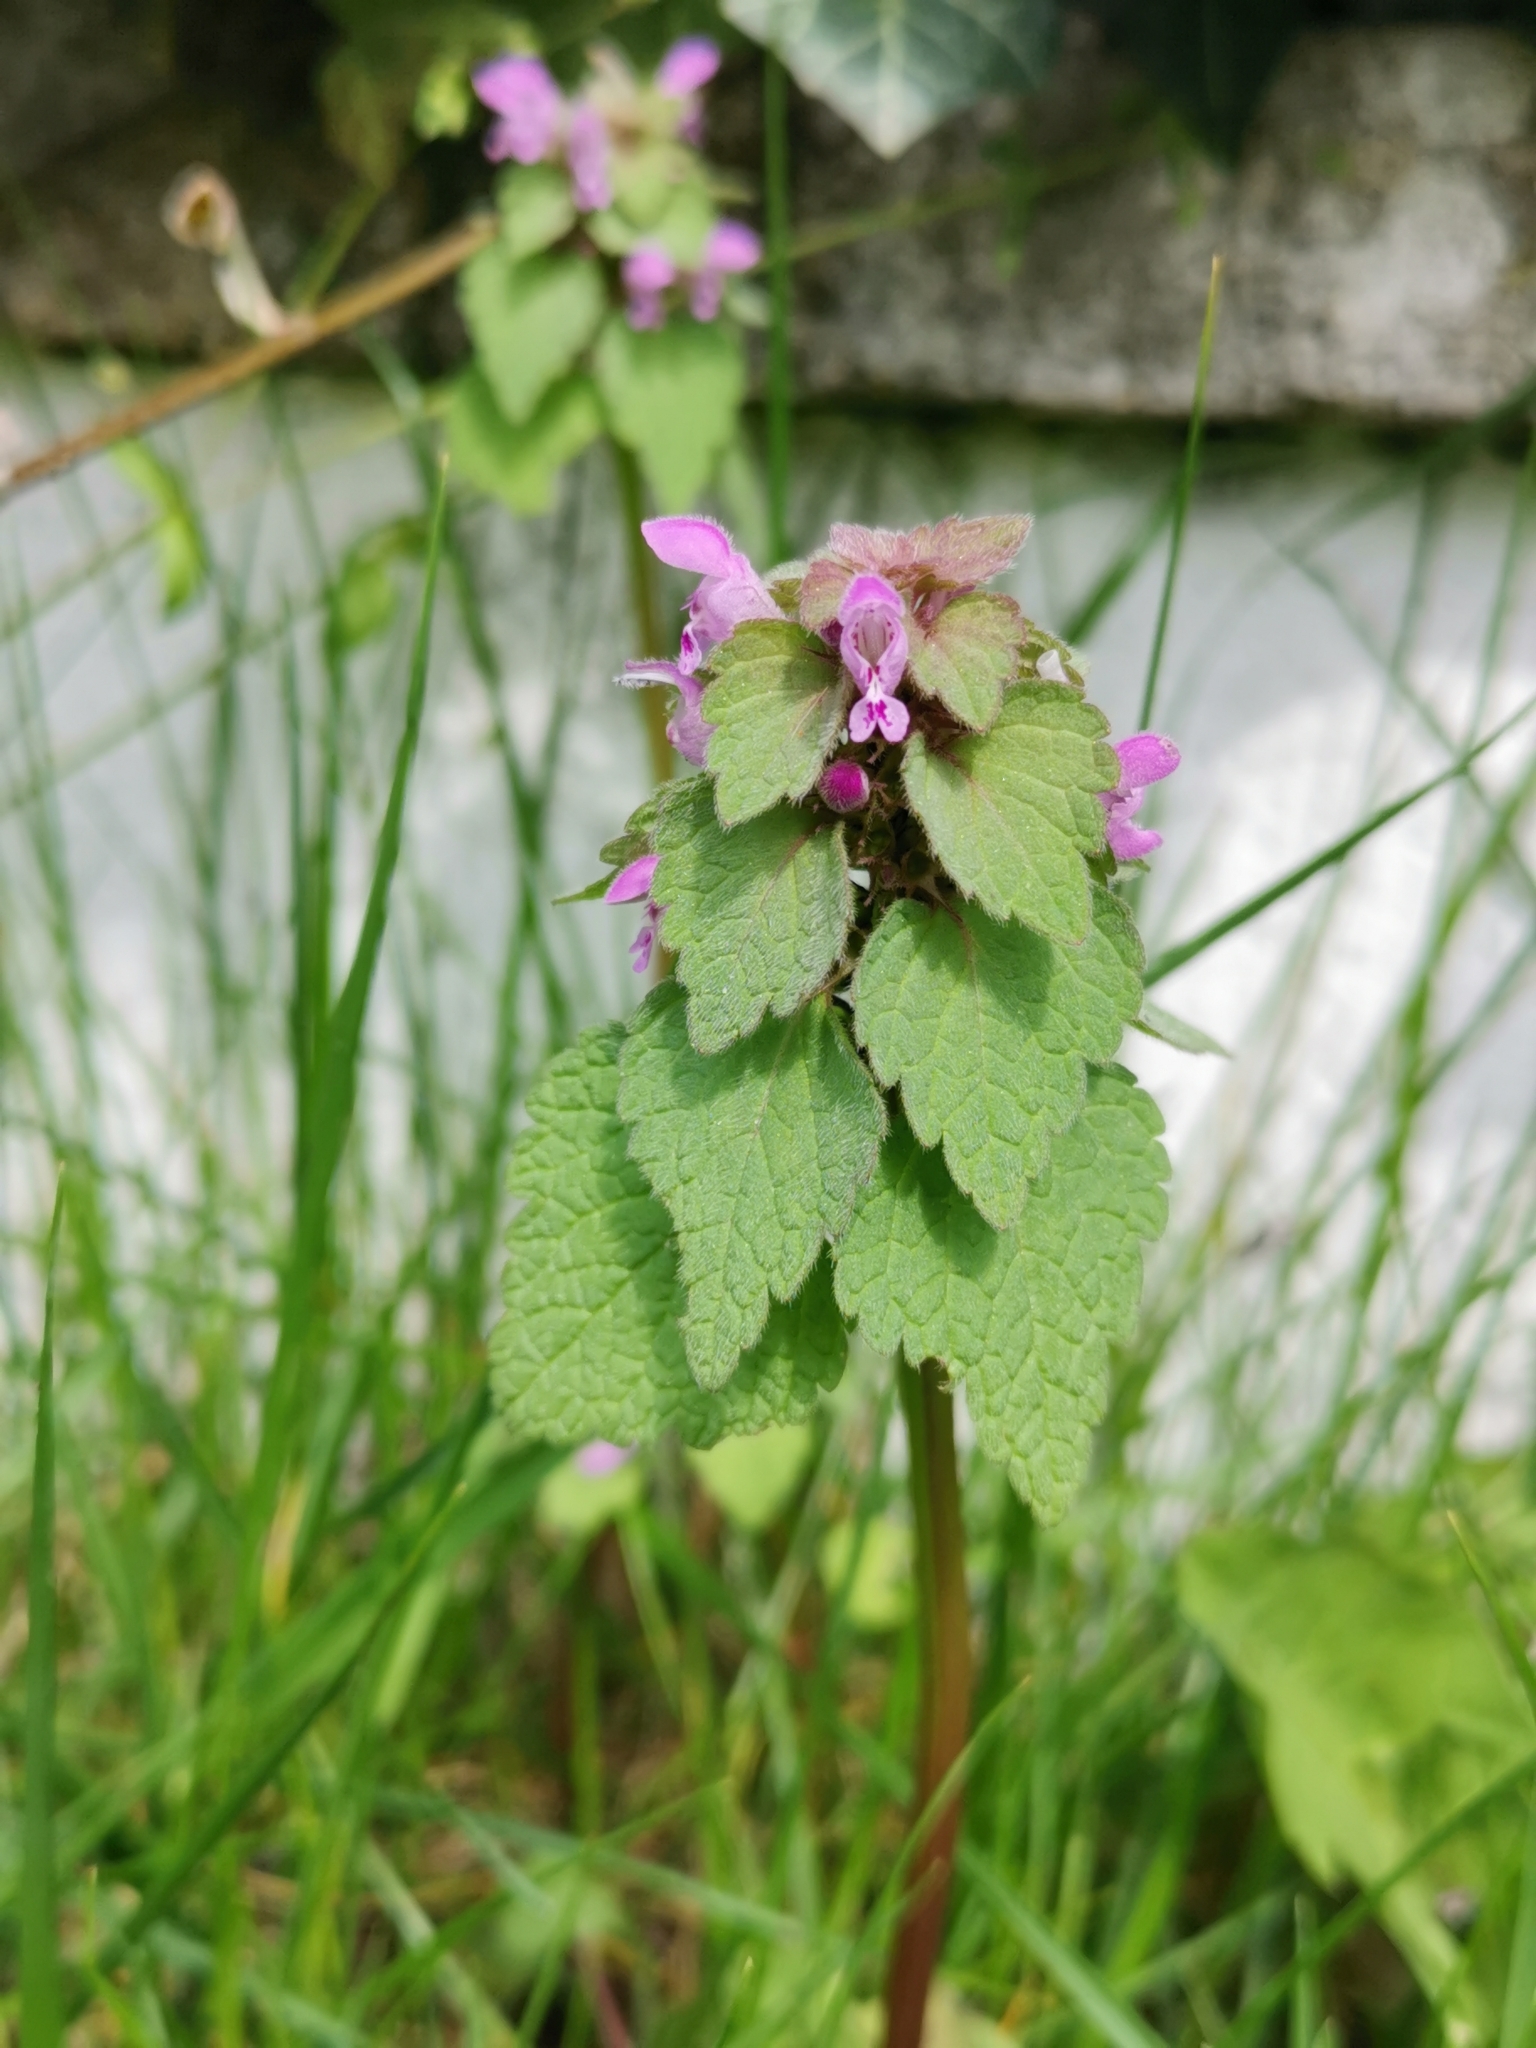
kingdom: Plantae
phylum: Tracheophyta
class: Magnoliopsida
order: Lamiales
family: Lamiaceae
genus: Lamium
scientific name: Lamium purpureum
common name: Red dead-nettle
